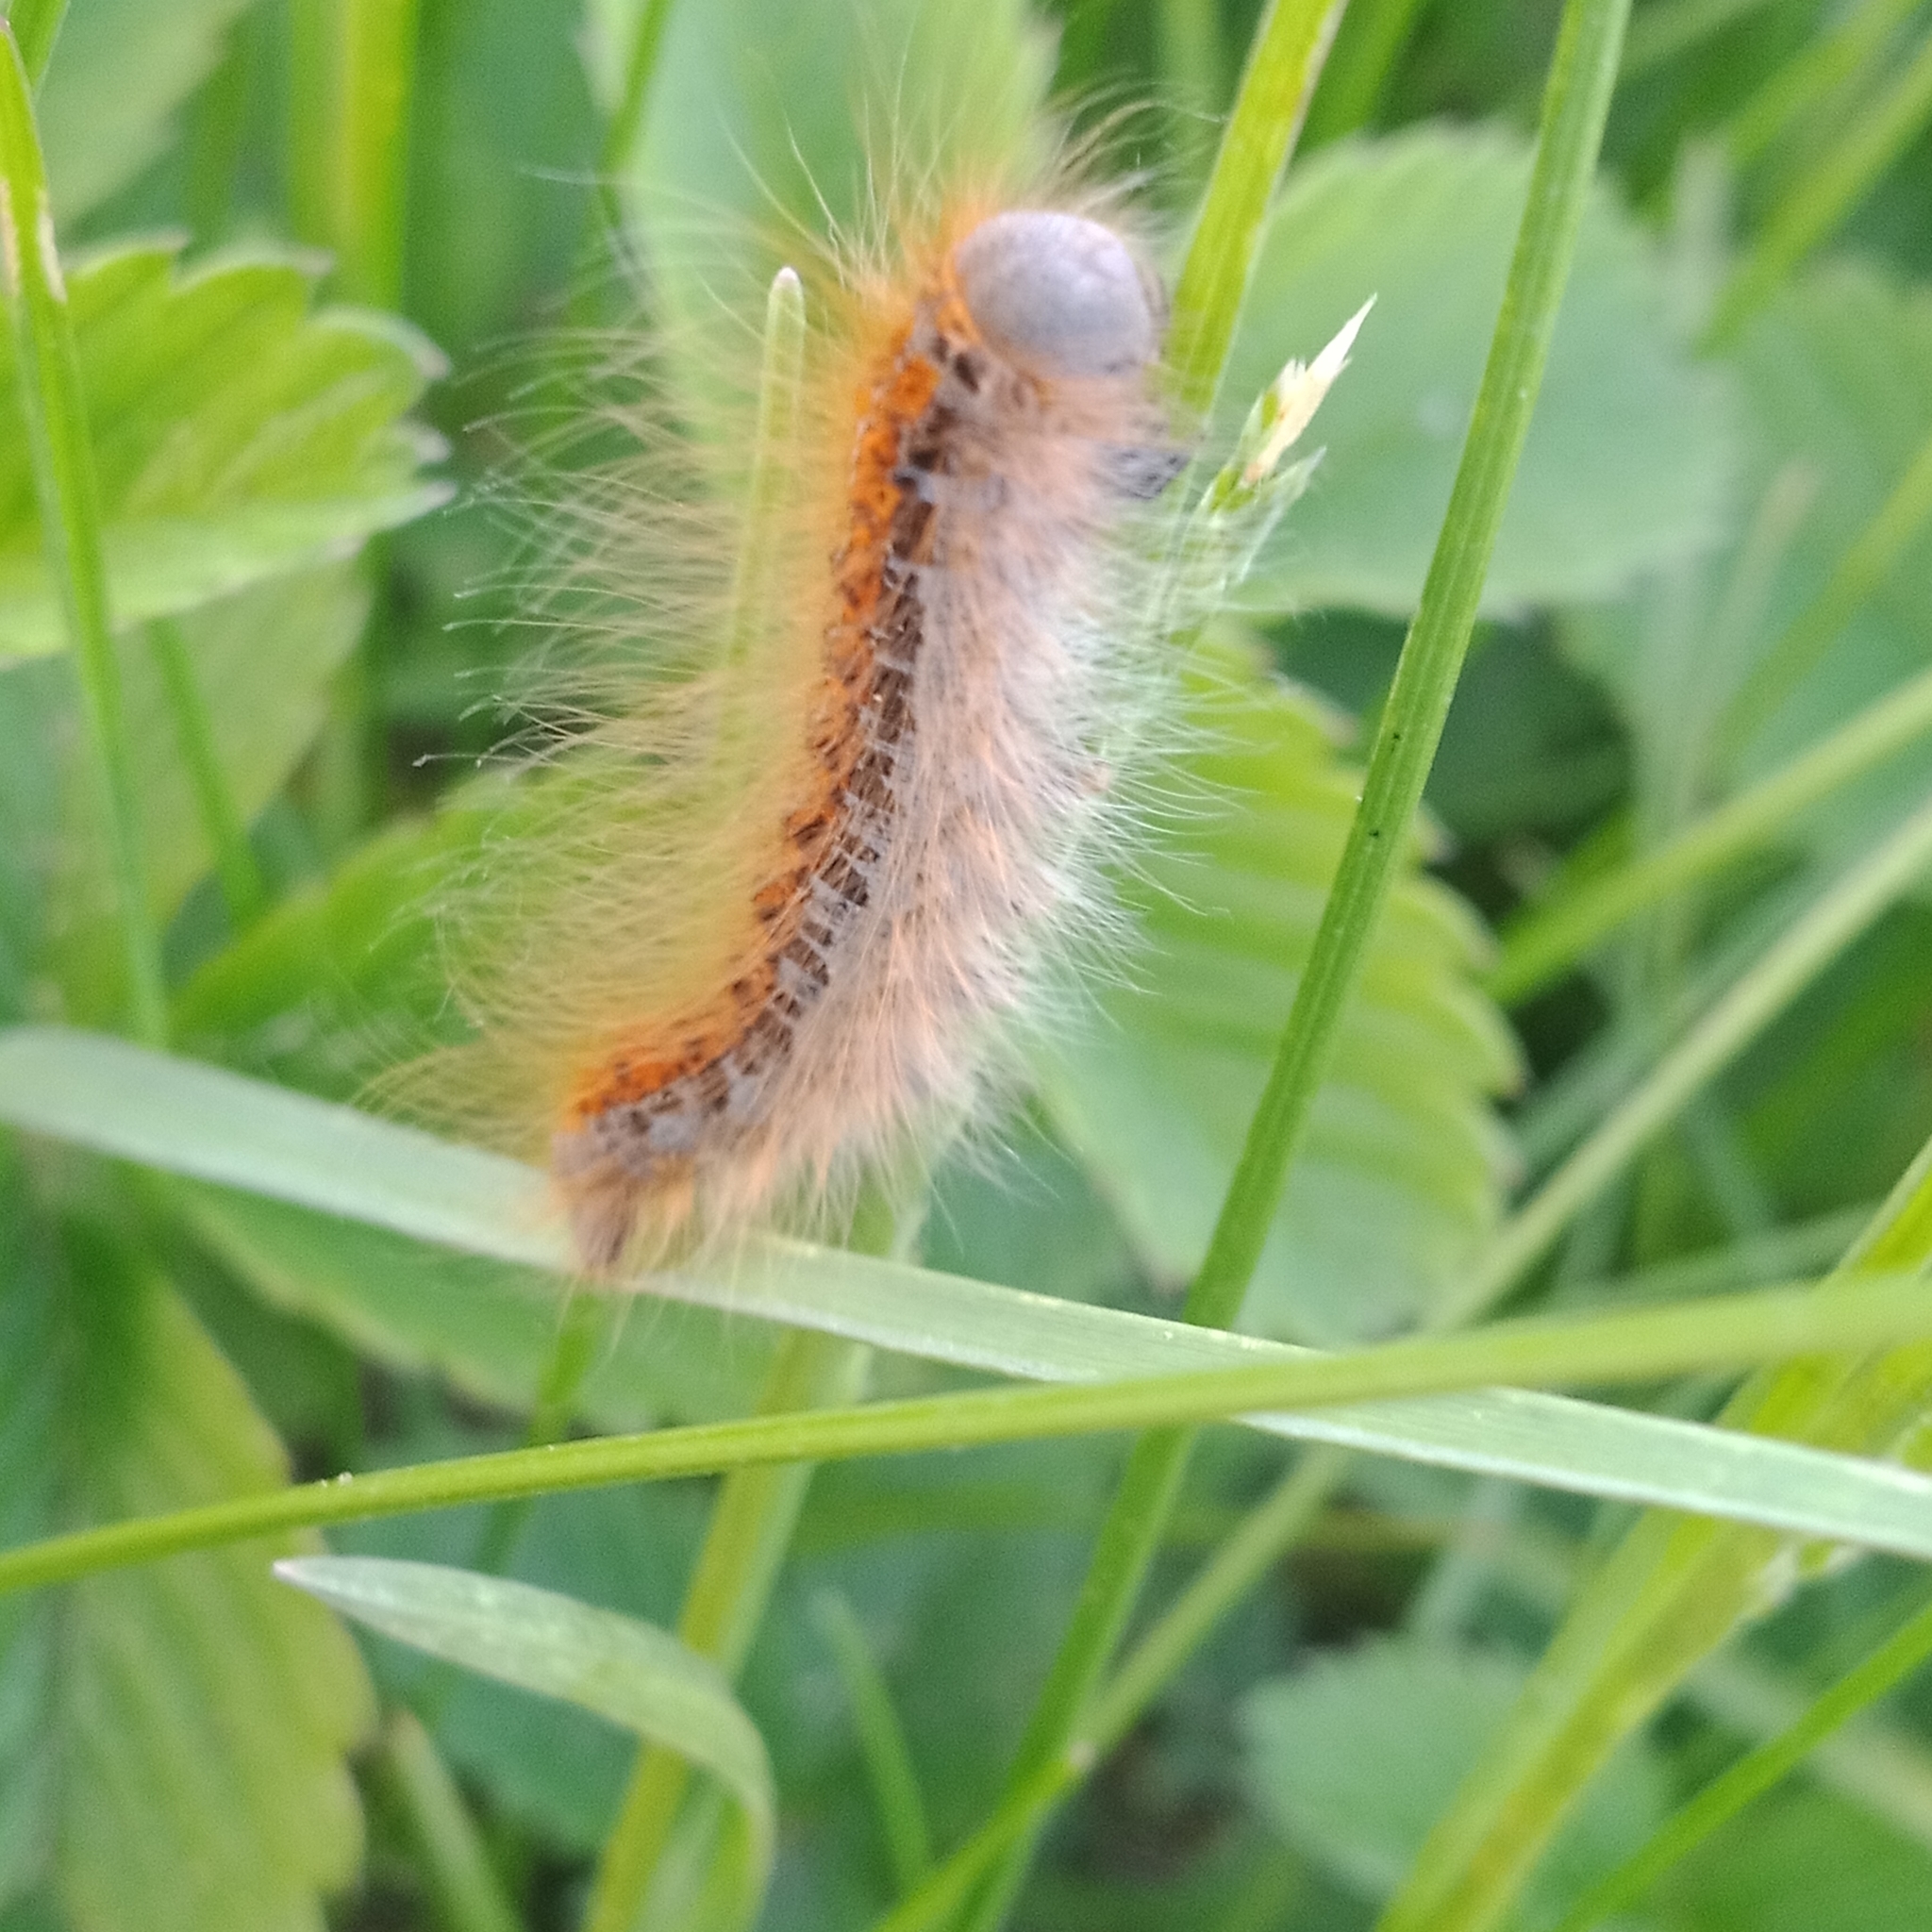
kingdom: Animalia
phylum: Arthropoda
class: Insecta
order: Lepidoptera
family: Lasiocampidae
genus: Malacosoma
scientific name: Malacosoma castrense
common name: Ground lackey
